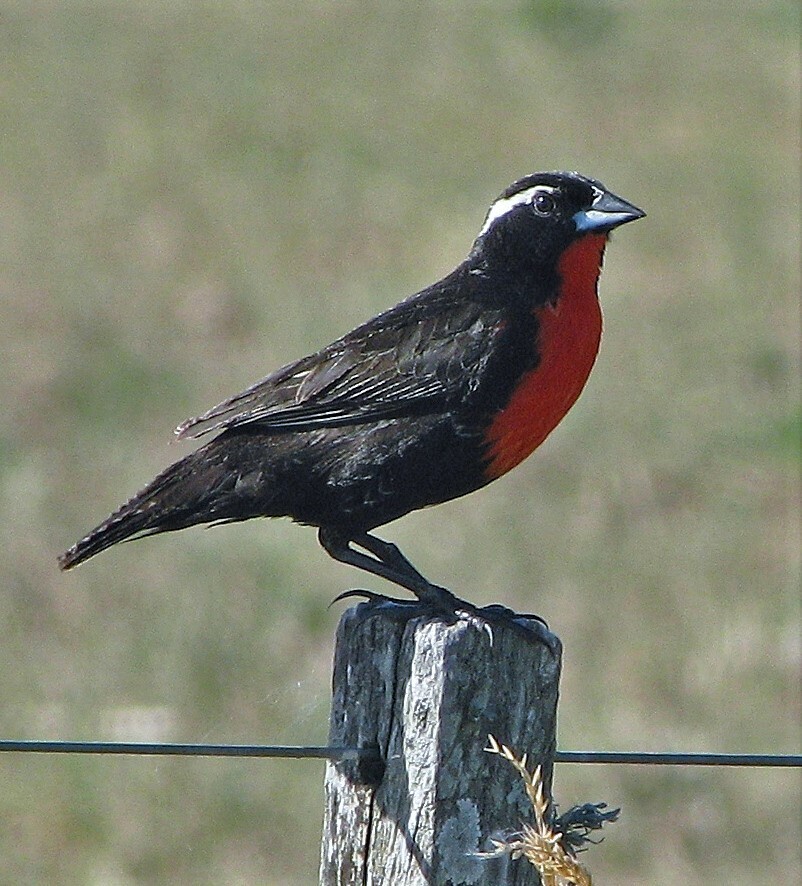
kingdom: Animalia
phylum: Chordata
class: Aves
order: Passeriformes
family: Icteridae
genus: Sturnella
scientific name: Sturnella superciliaris
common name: White-browed blackbird
